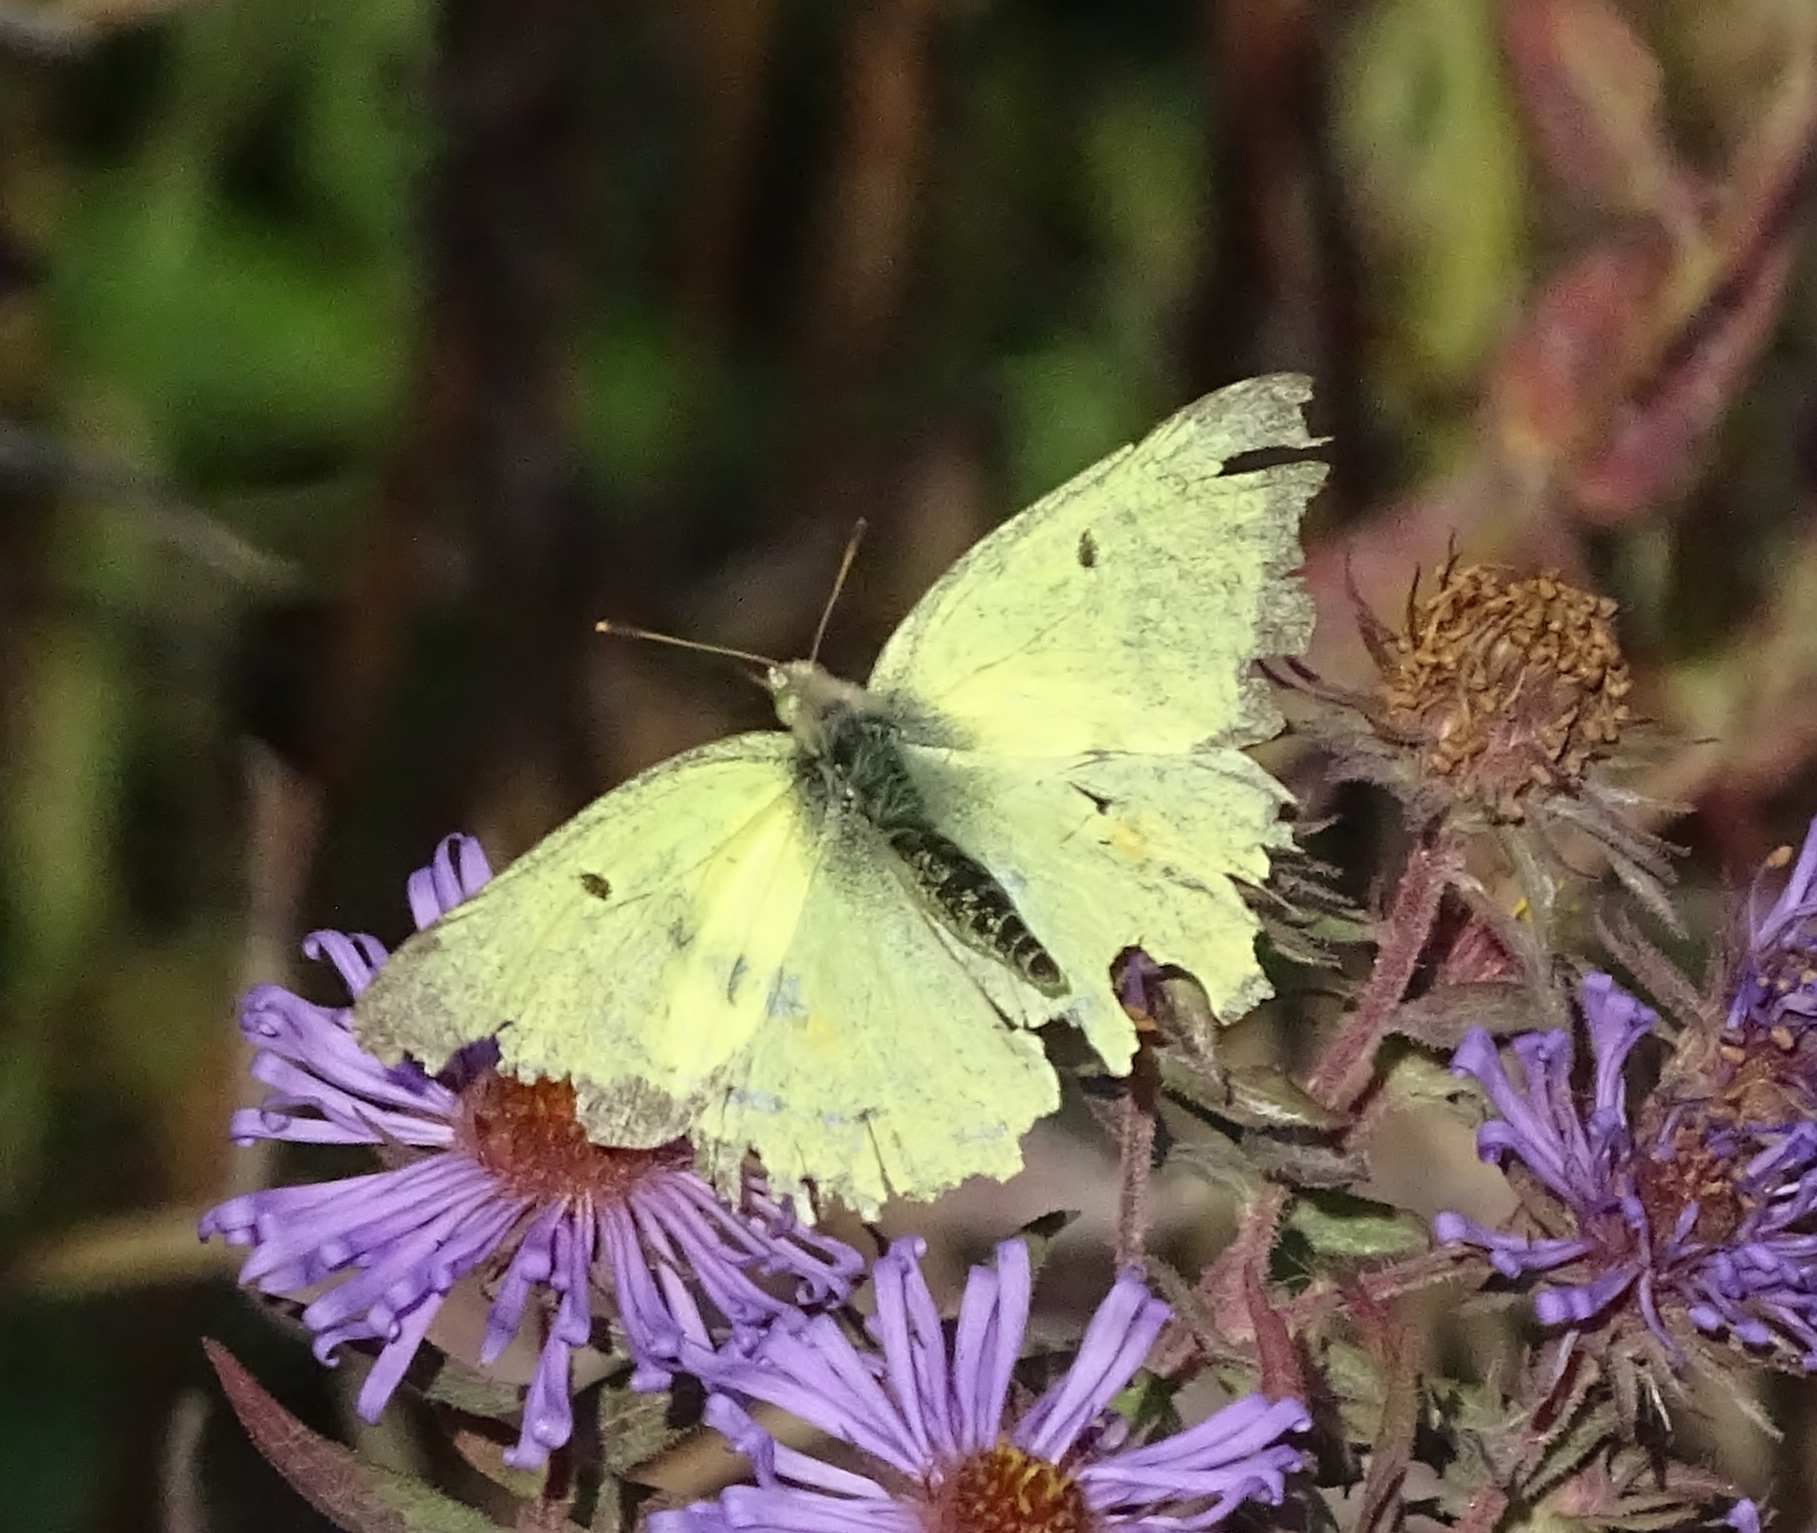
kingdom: Animalia
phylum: Arthropoda
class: Insecta
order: Lepidoptera
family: Pieridae
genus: Colias
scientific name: Colias philodice
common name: Clouded sulphur
